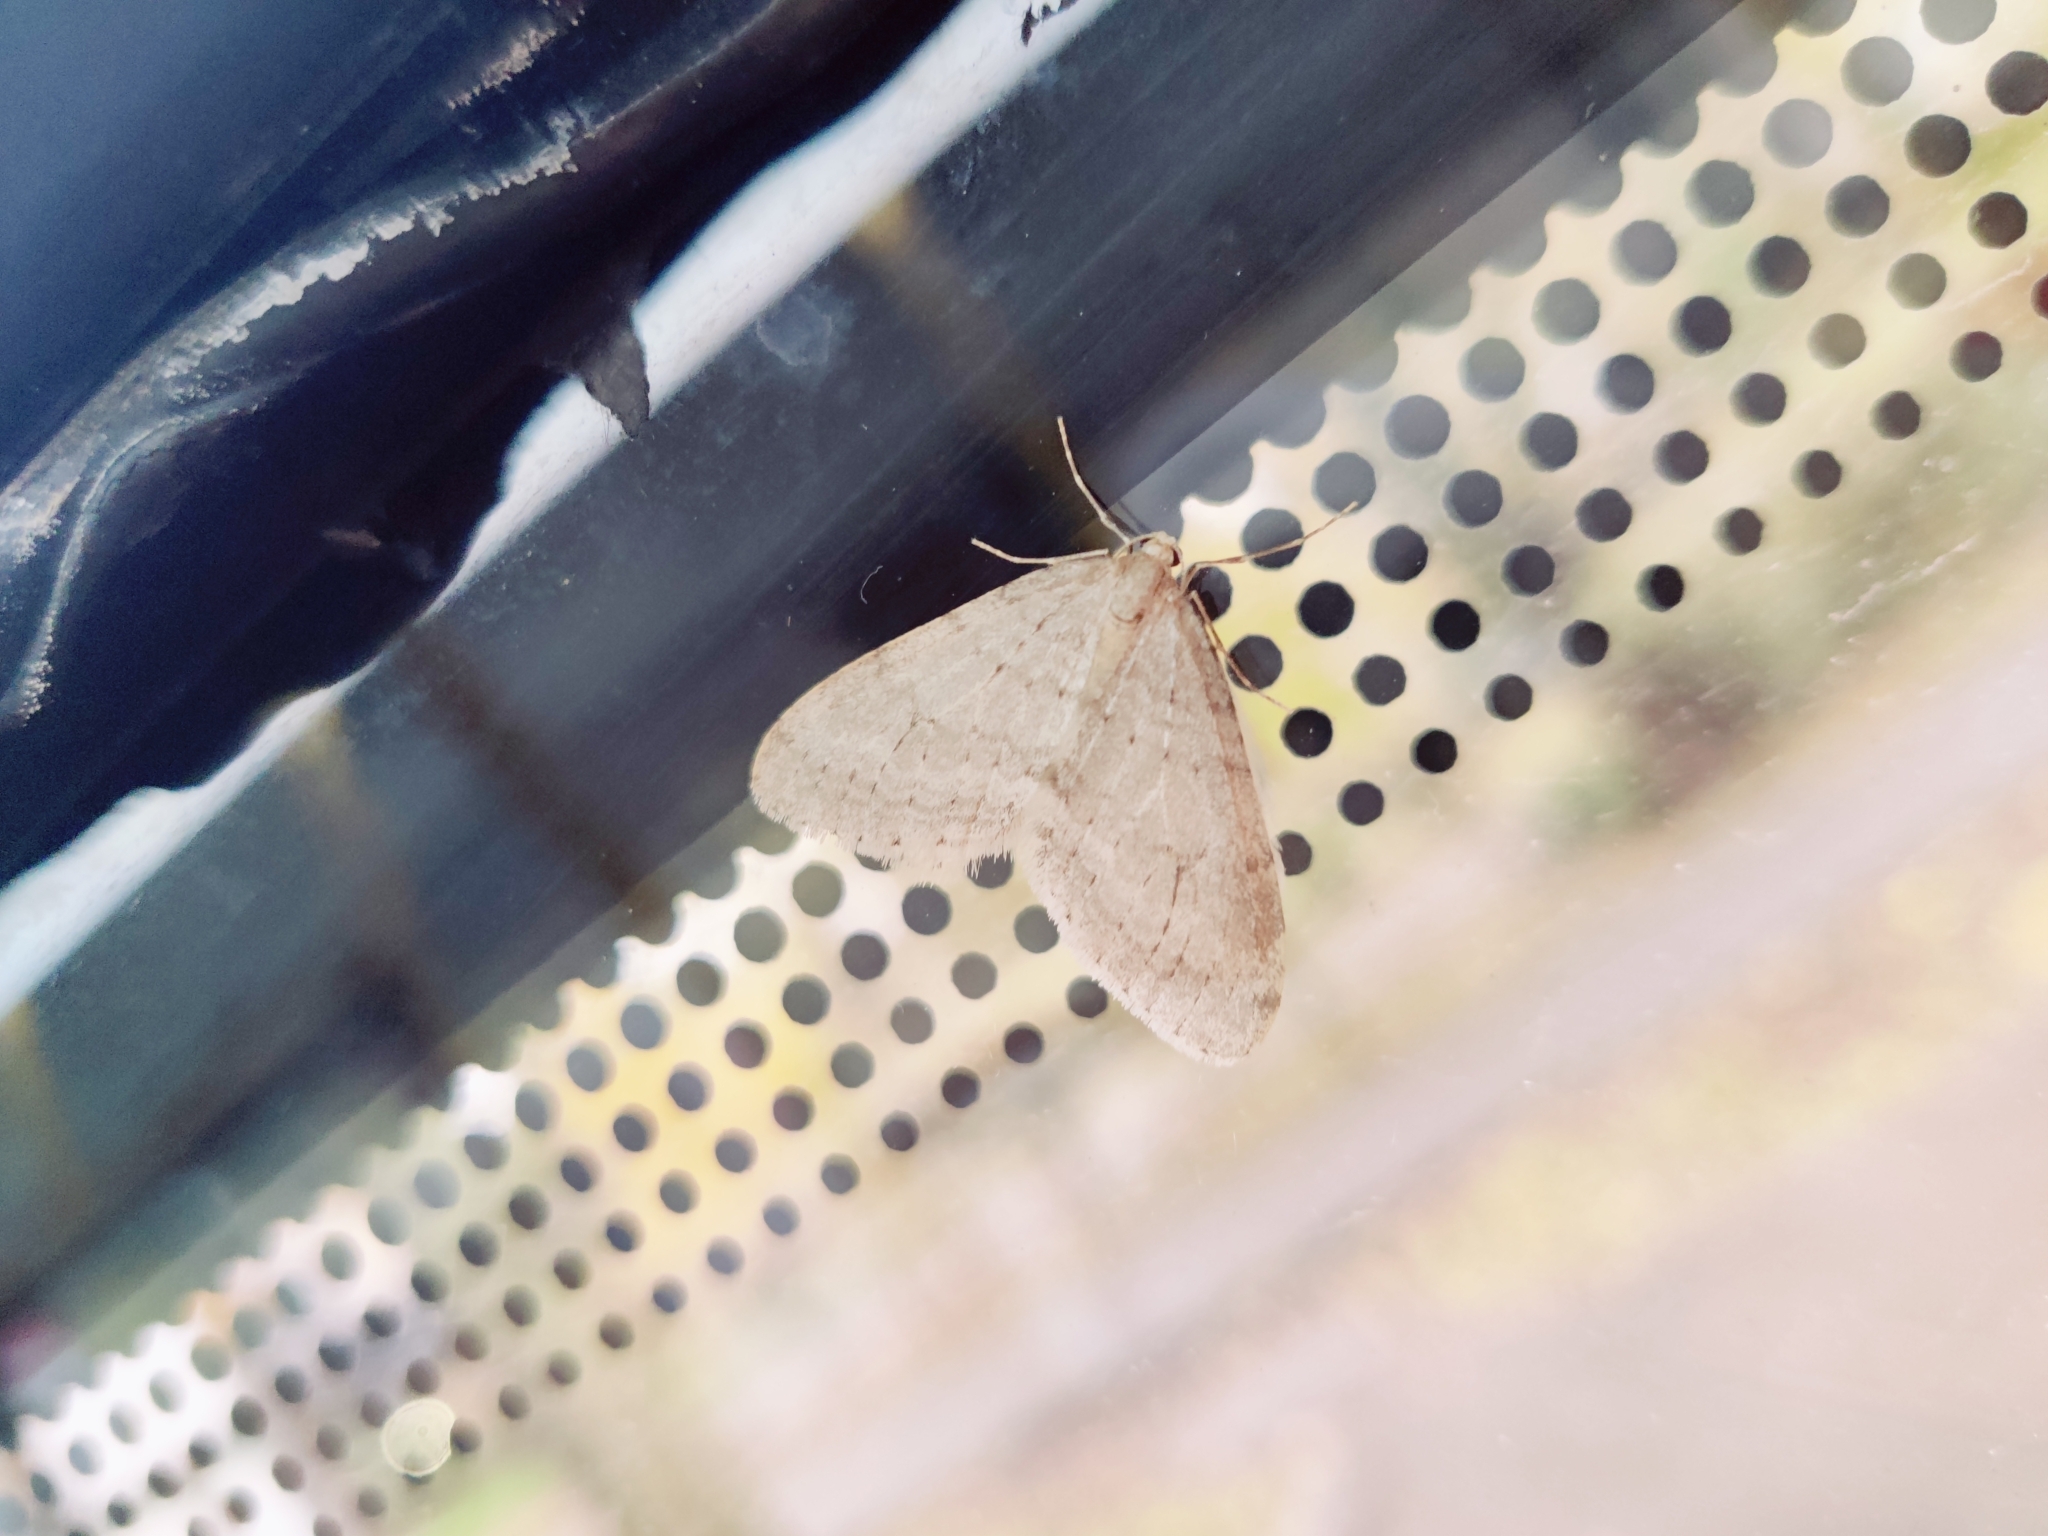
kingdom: Animalia
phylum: Arthropoda
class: Insecta
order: Lepidoptera
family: Geometridae
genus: Operophtera
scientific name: Operophtera fagata
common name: Northern winter moth
